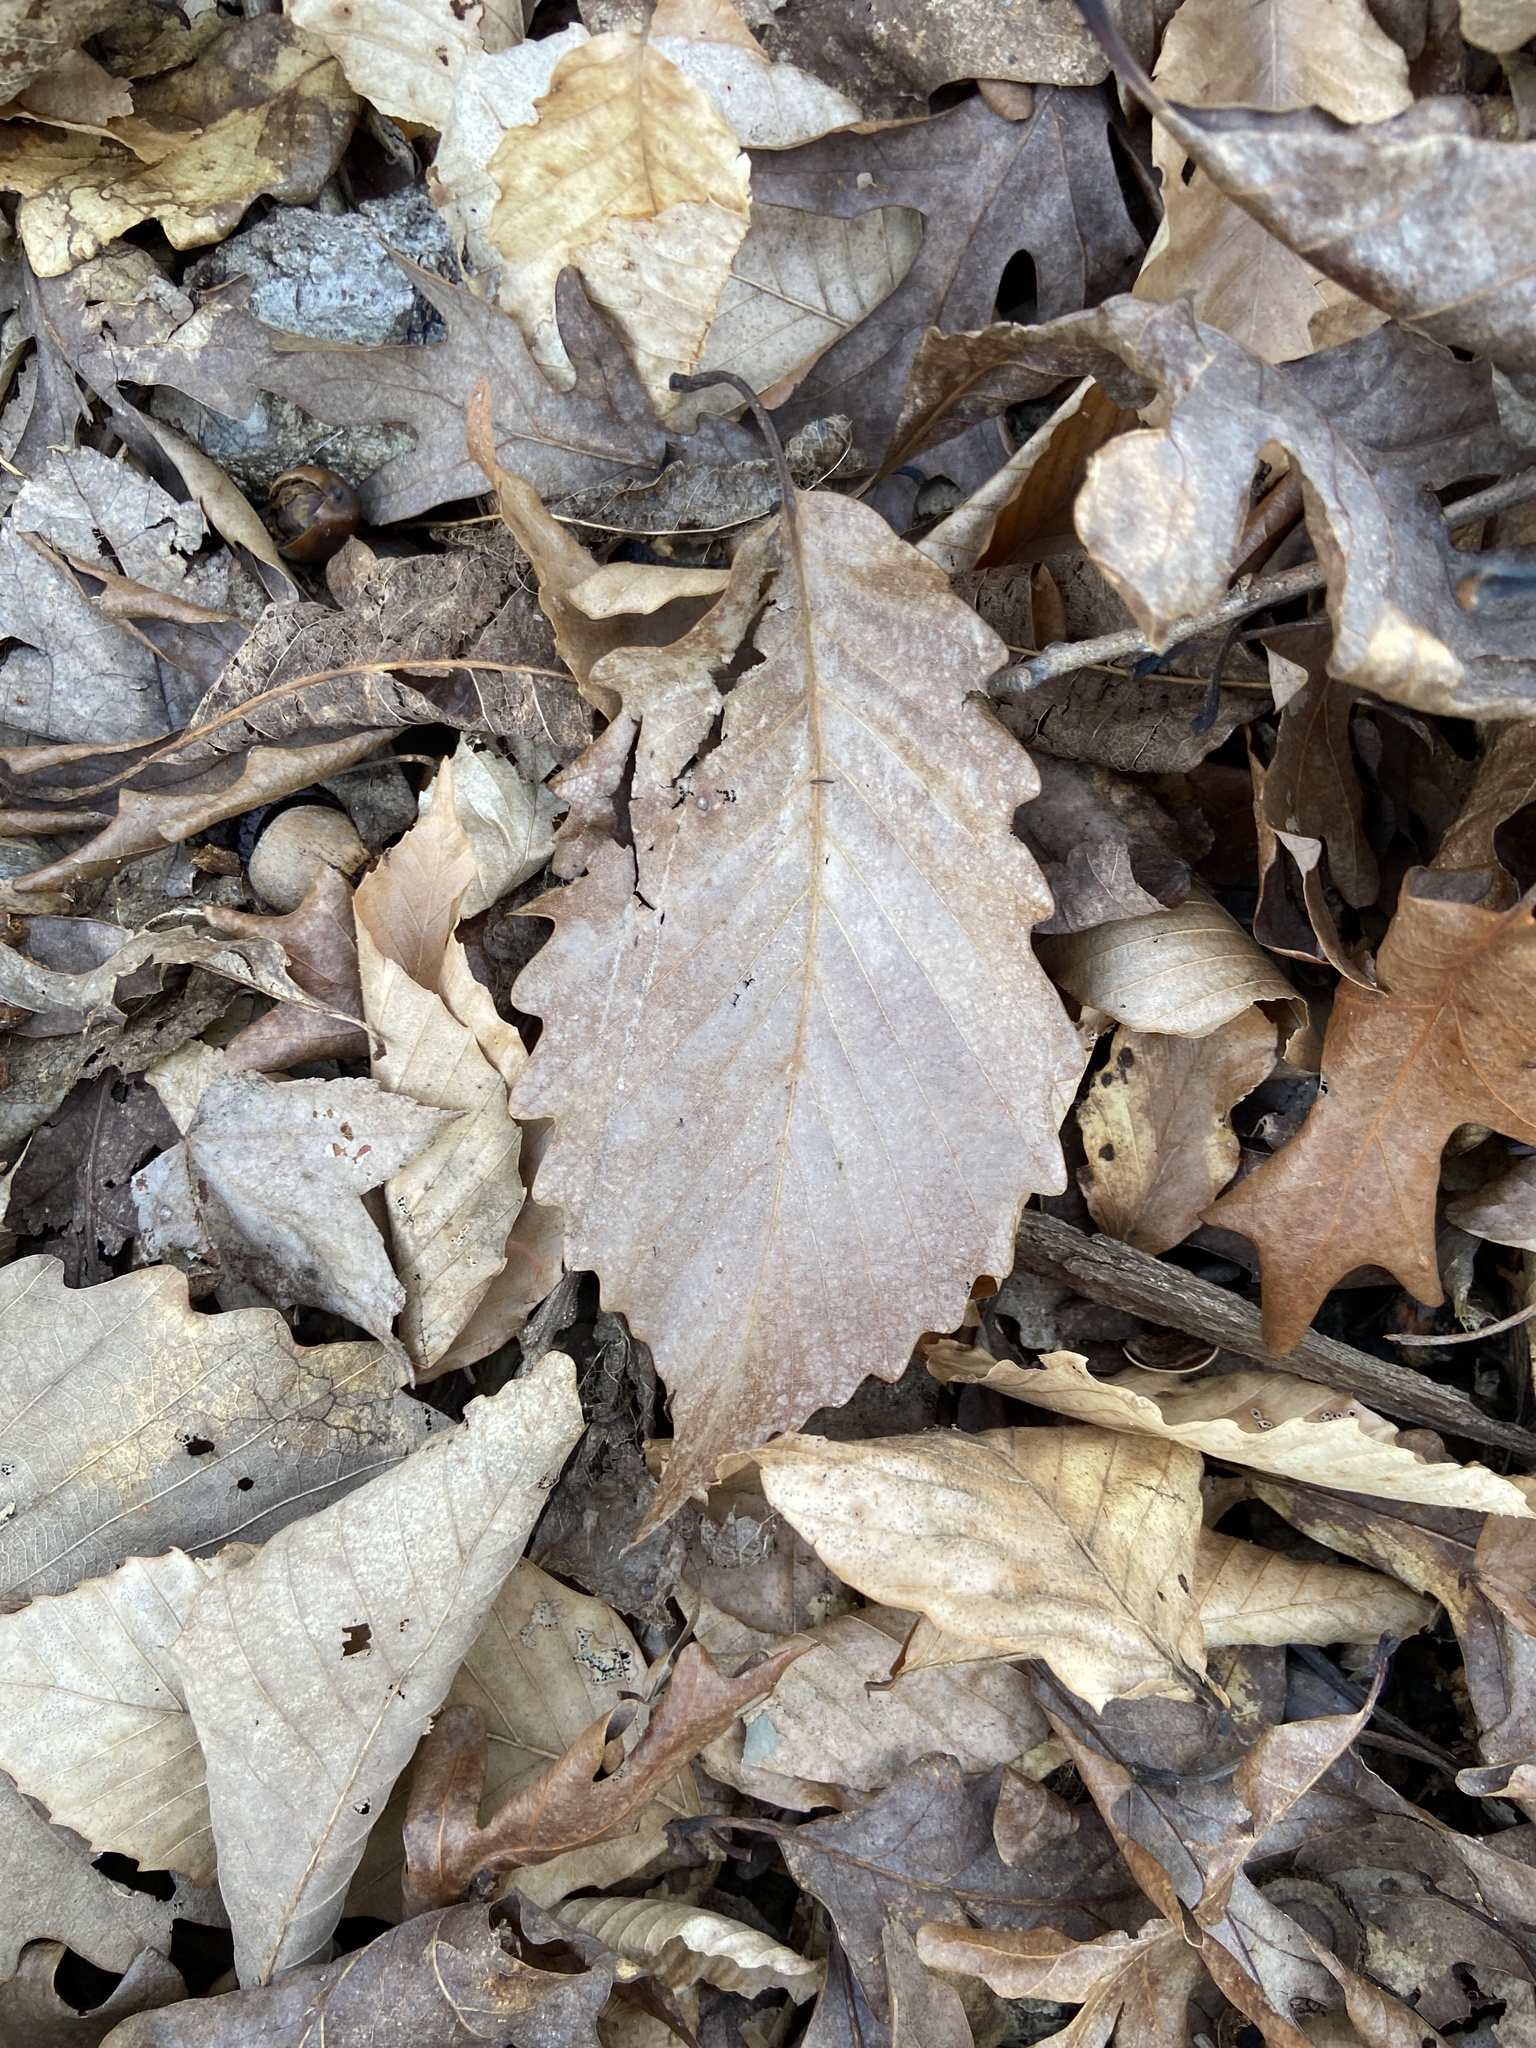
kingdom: Plantae
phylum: Tracheophyta
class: Magnoliopsida
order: Fagales
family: Fagaceae
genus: Quercus
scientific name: Quercus montana
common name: Chestnut oak
